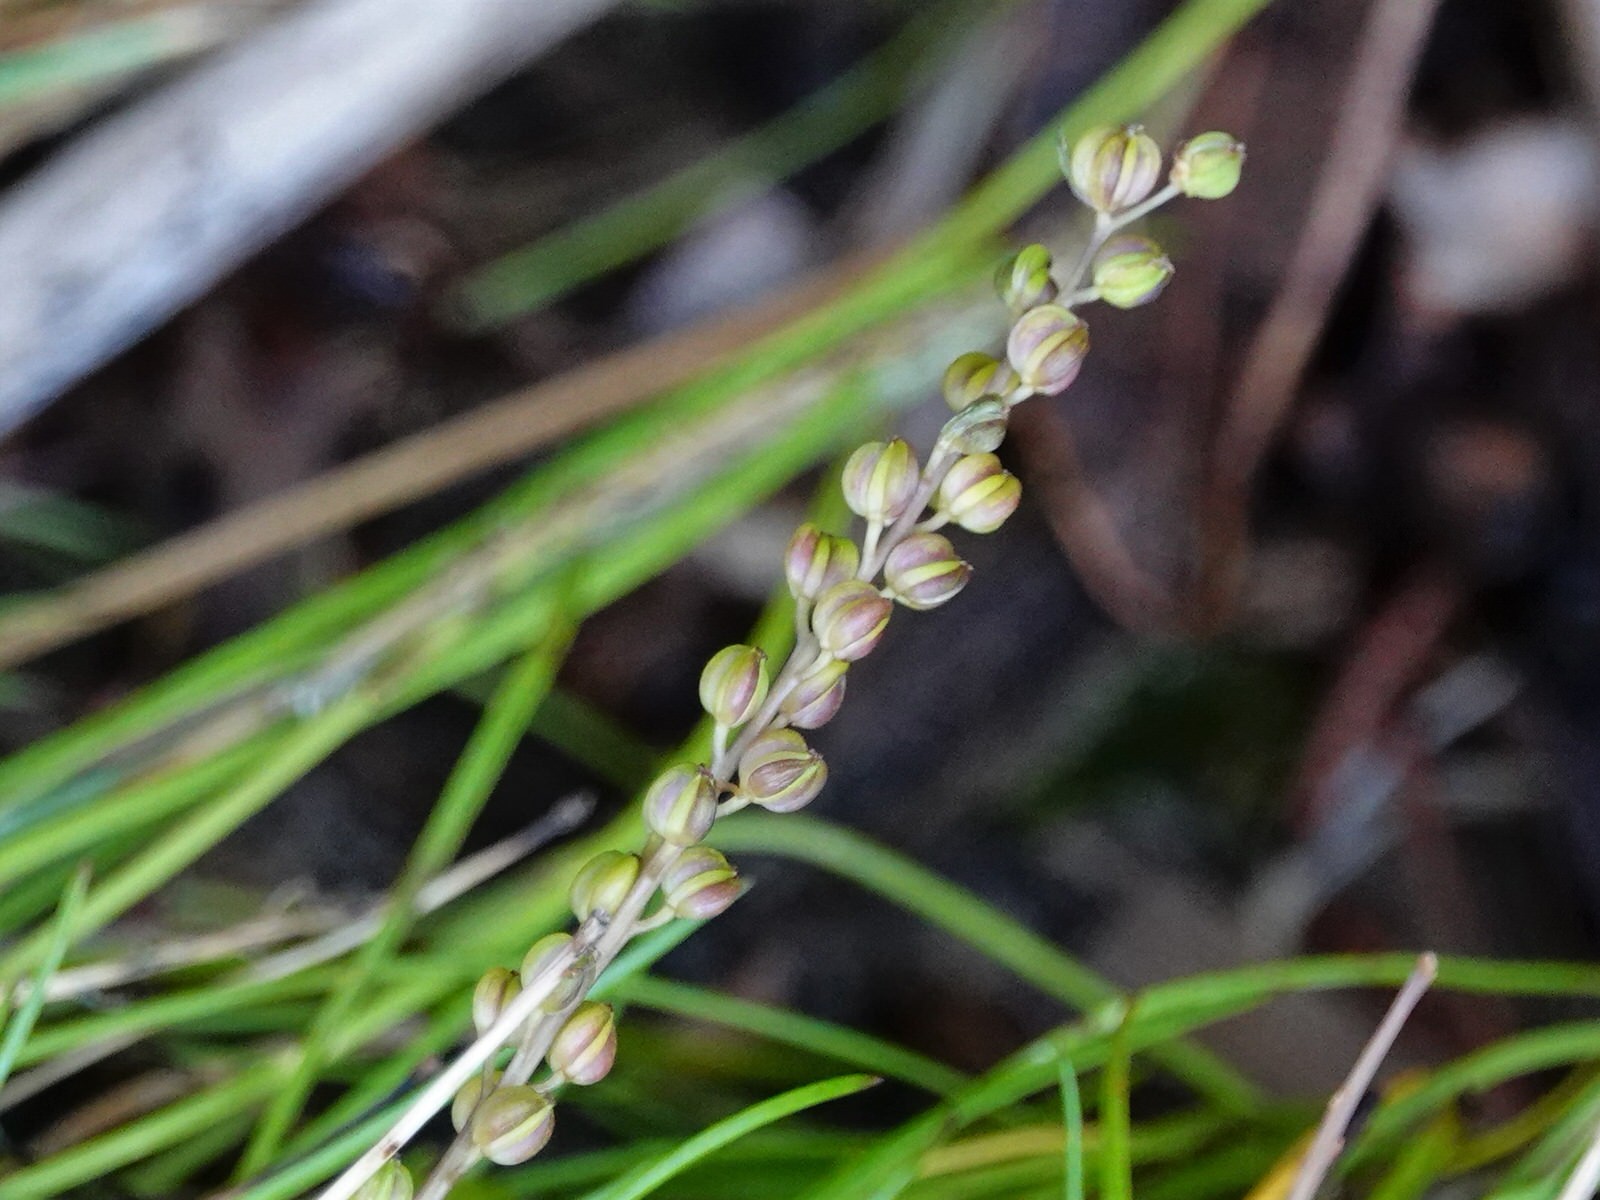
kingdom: Plantae
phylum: Tracheophyta
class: Liliopsida
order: Alismatales
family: Juncaginaceae
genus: Triglochin
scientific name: Triglochin striata
